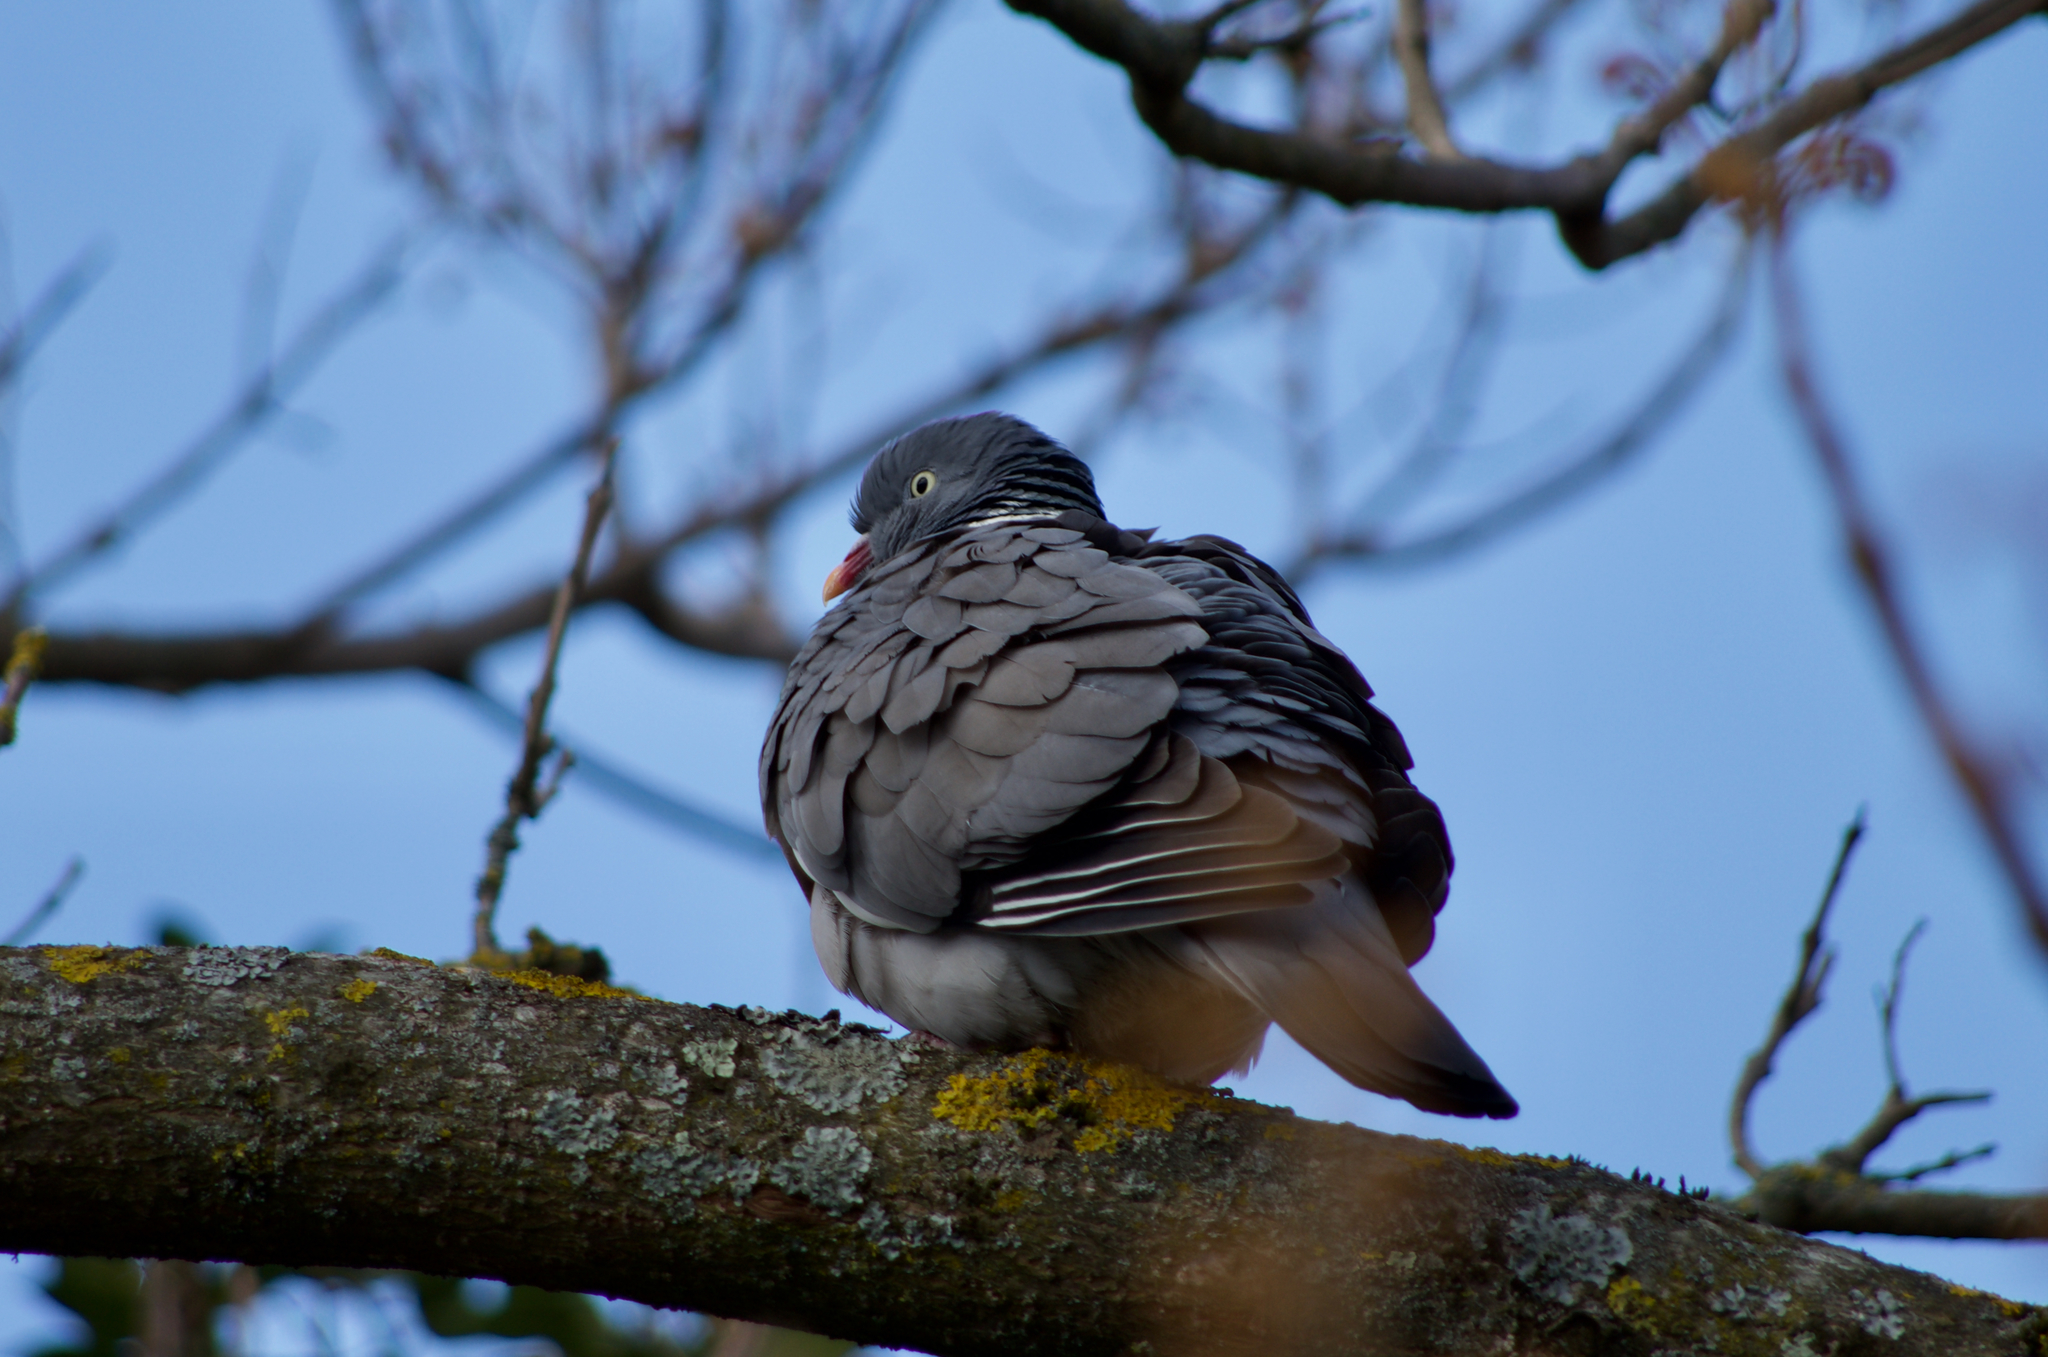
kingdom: Animalia
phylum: Chordata
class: Aves
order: Columbiformes
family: Columbidae
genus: Columba
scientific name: Columba palumbus
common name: Common wood pigeon
